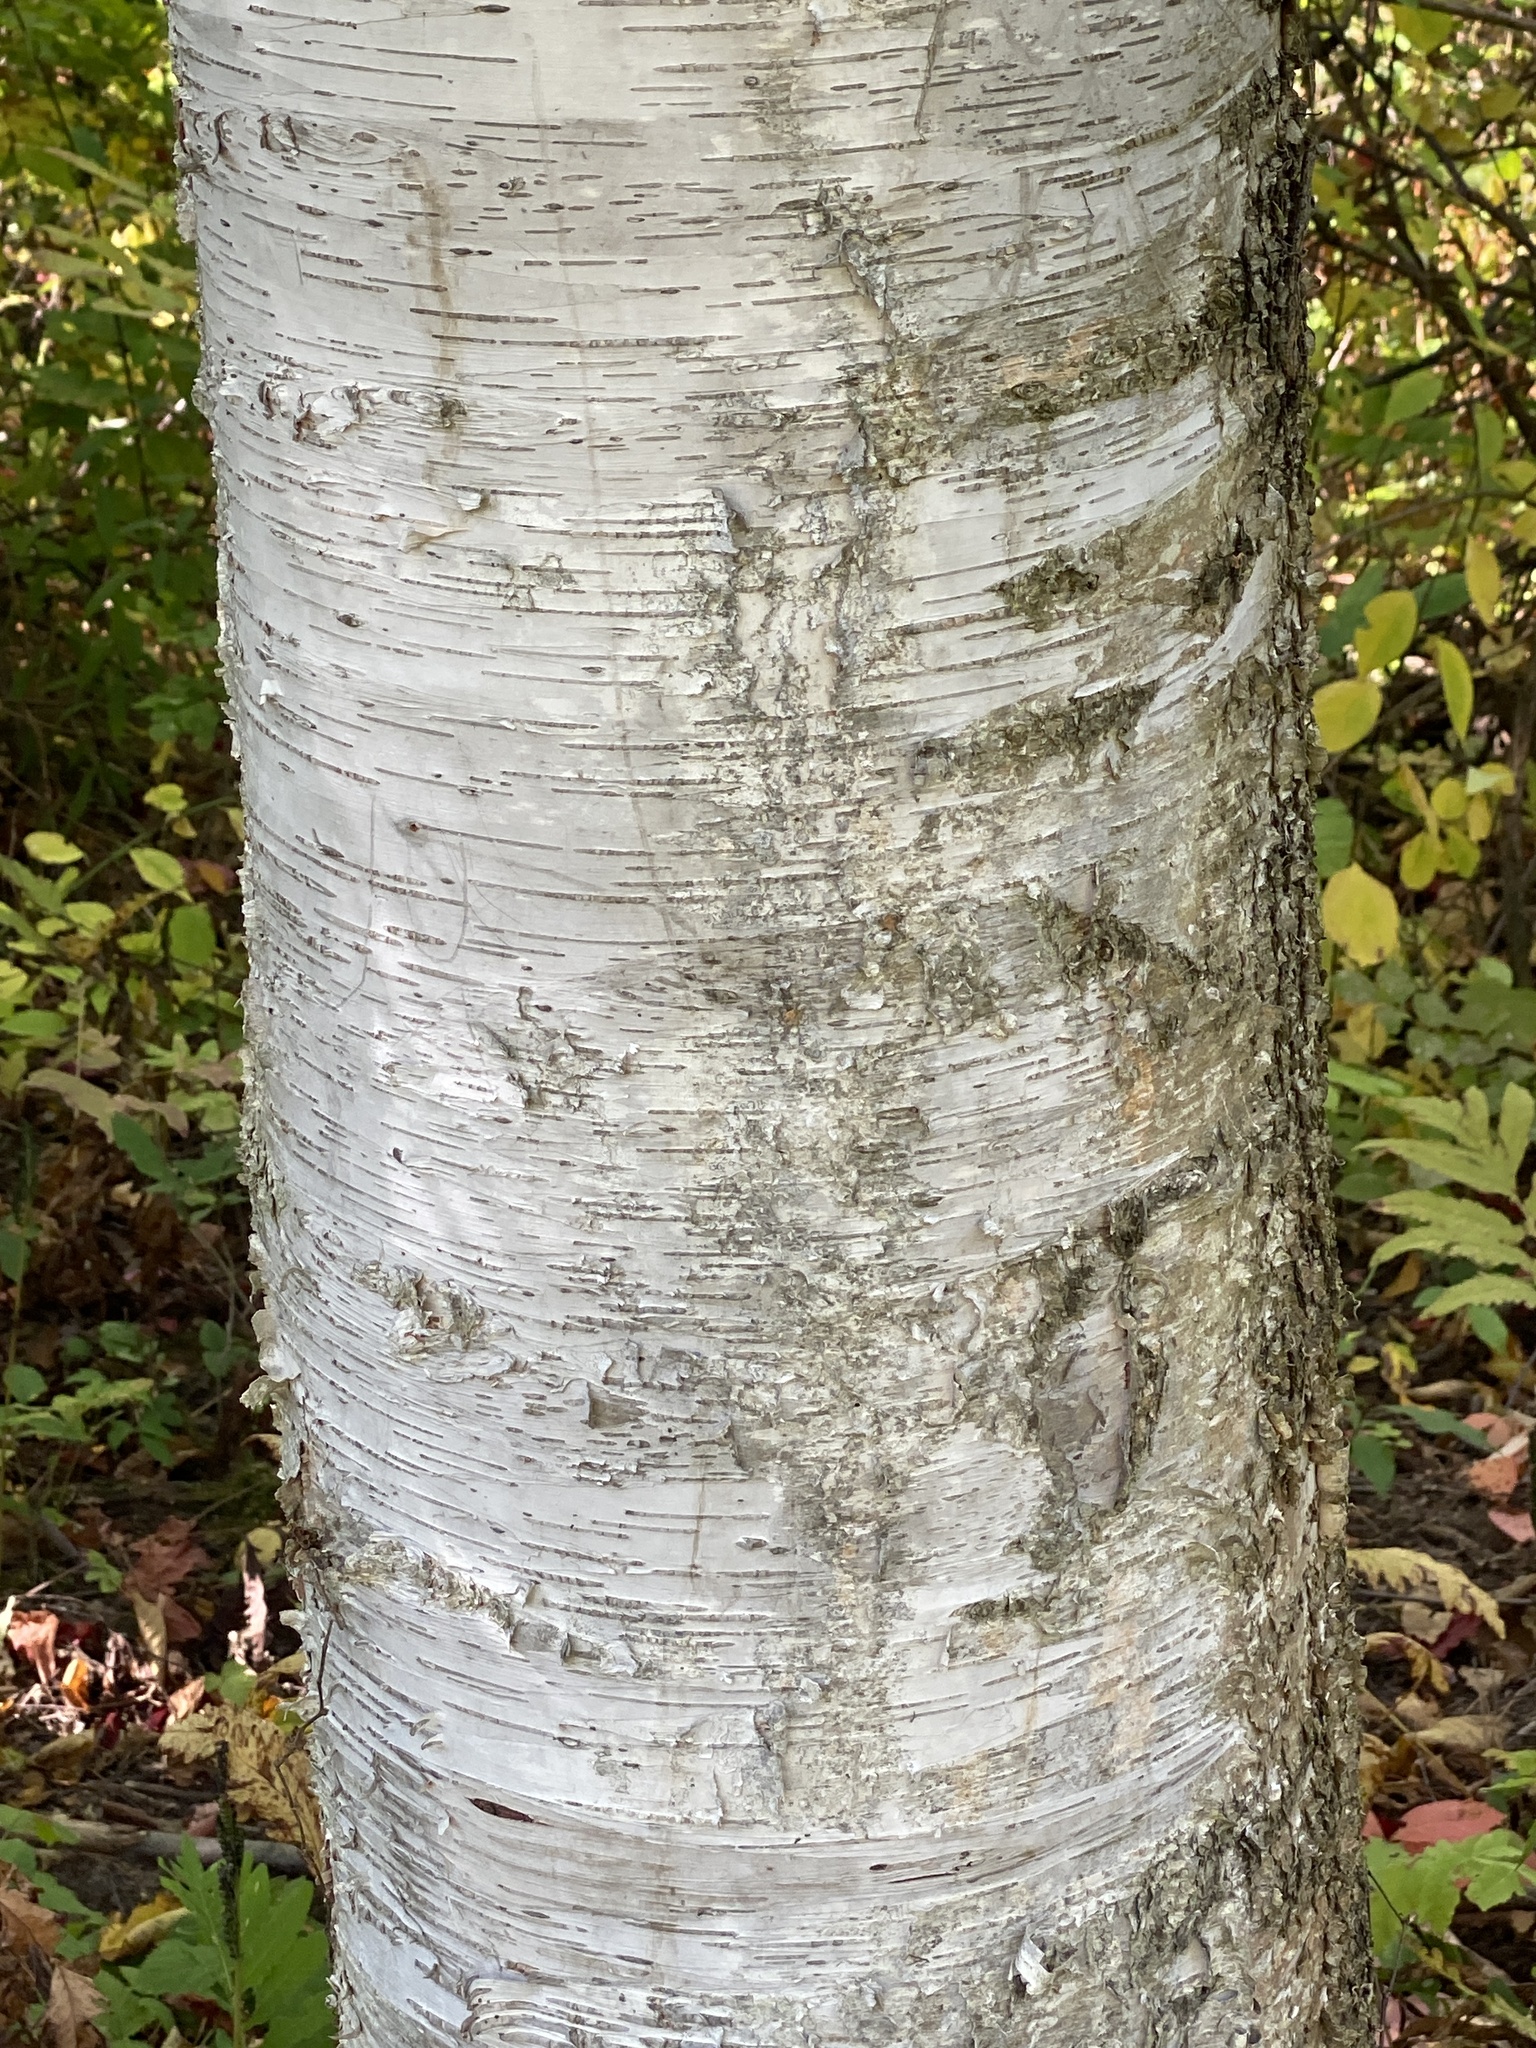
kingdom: Plantae
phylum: Tracheophyta
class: Magnoliopsida
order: Fagales
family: Betulaceae
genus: Betula
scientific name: Betula papyrifera
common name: Paper birch
